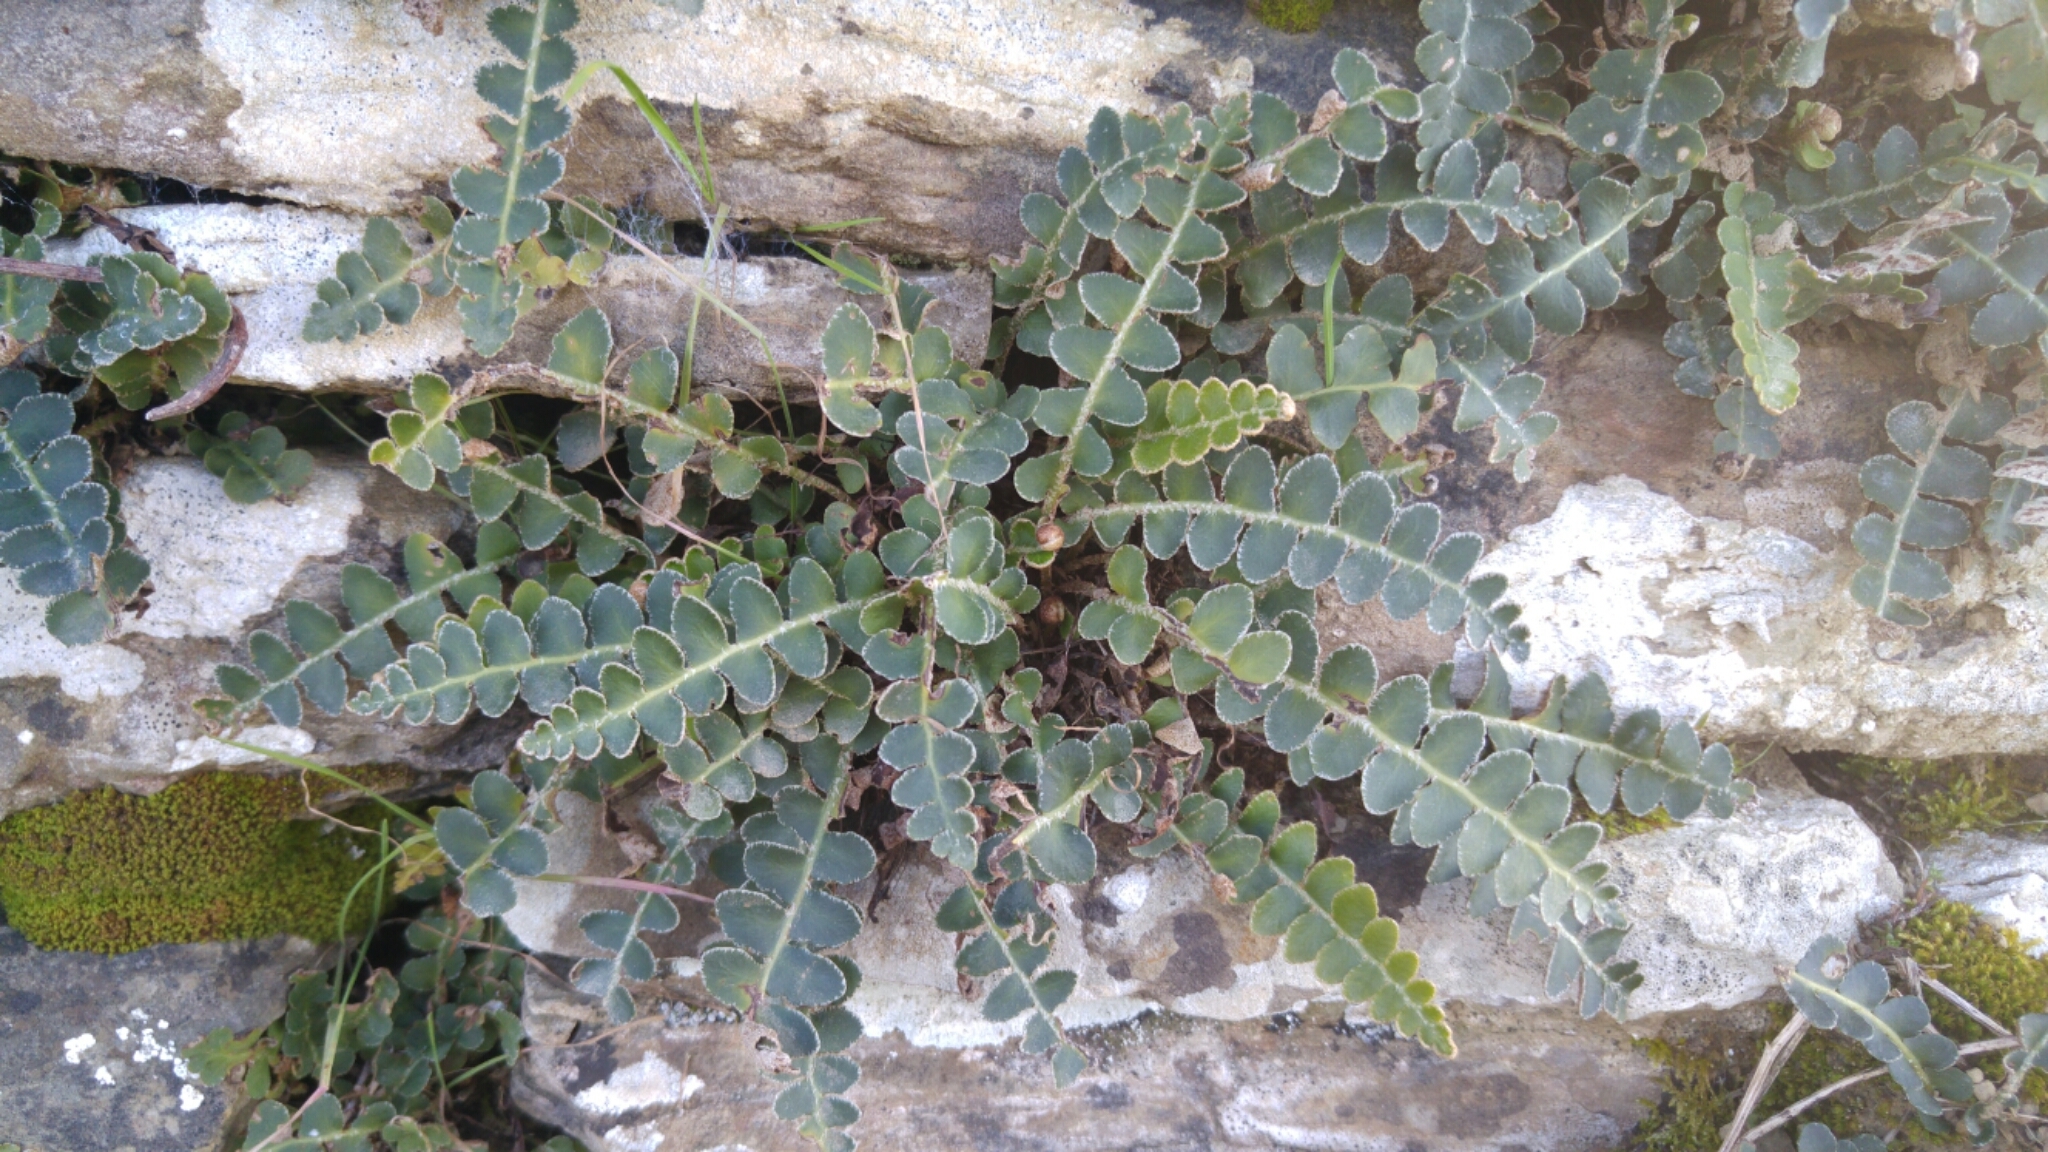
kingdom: Plantae
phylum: Tracheophyta
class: Polypodiopsida
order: Polypodiales
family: Aspleniaceae
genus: Asplenium
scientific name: Asplenium ceterach
